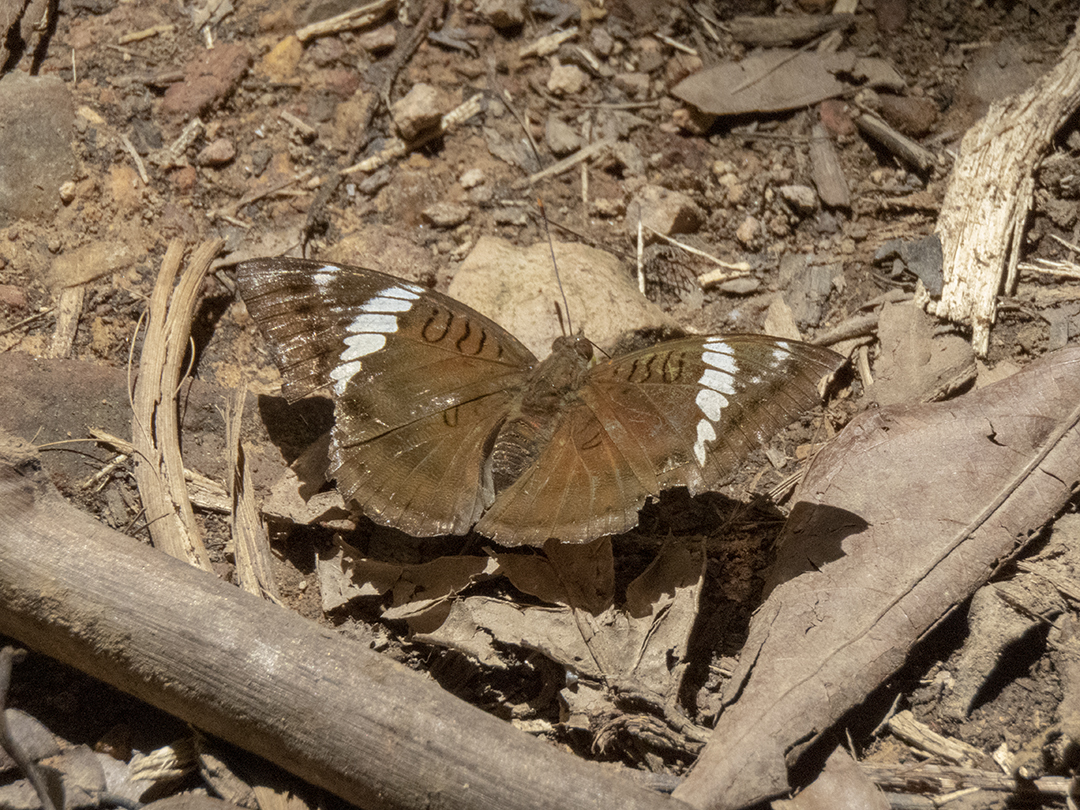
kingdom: Animalia
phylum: Arthropoda
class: Insecta
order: Lepidoptera
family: Nymphalidae
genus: Euthalia
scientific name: Euthalia phemius
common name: White-edged blue baron
